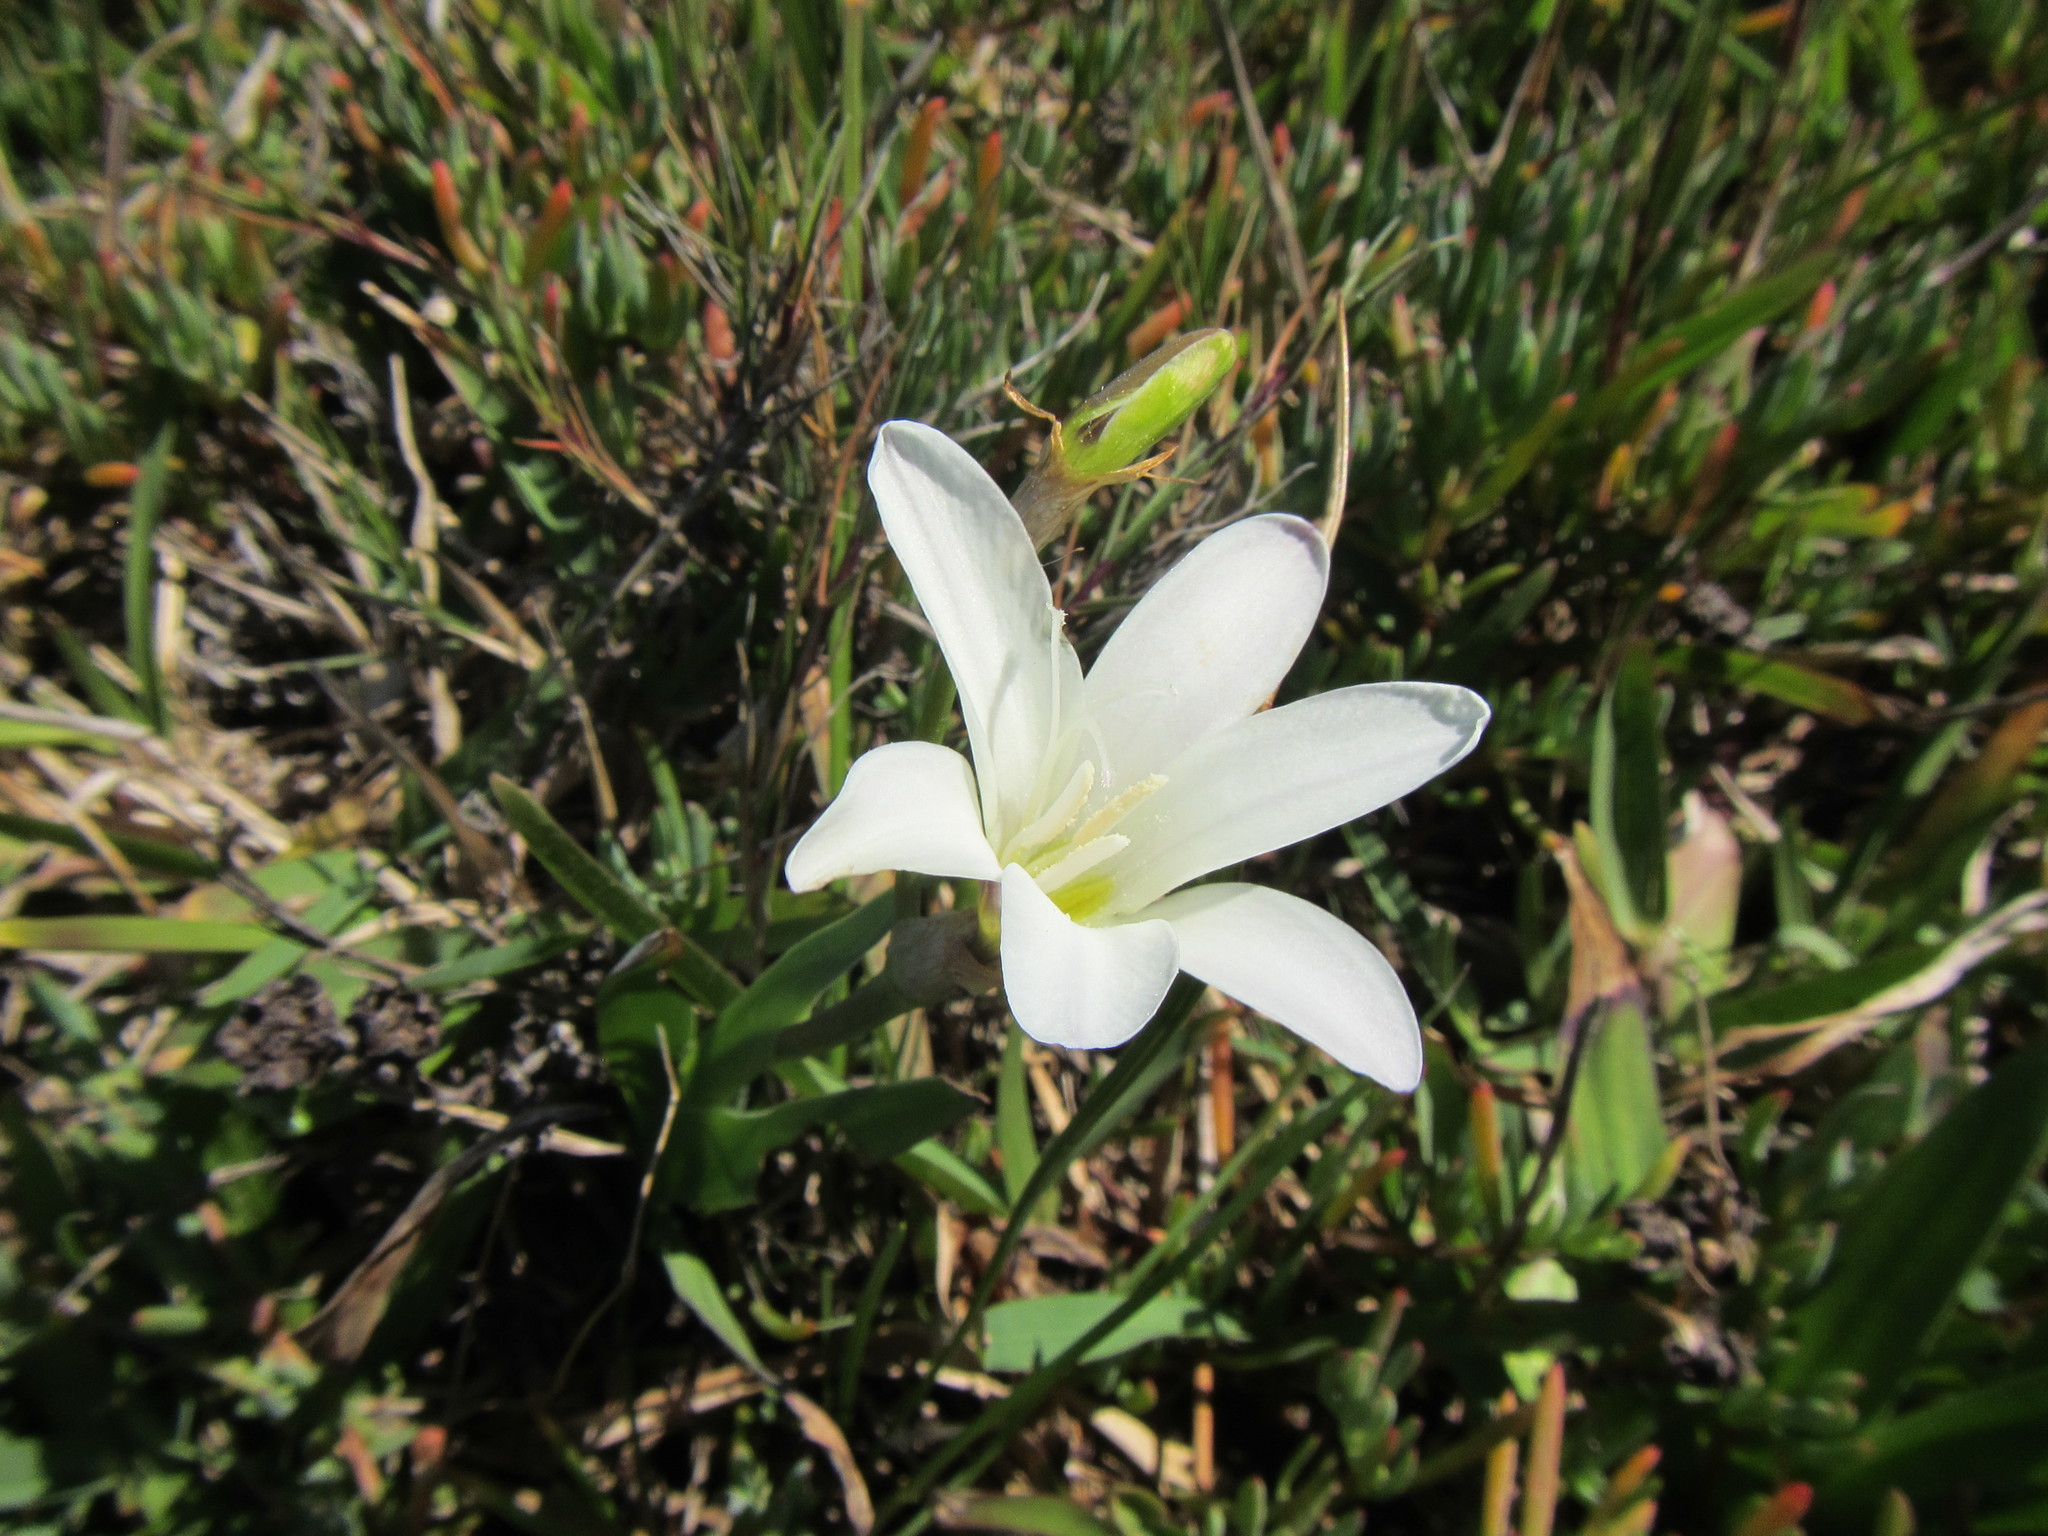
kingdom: Plantae
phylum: Tracheophyta
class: Liliopsida
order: Asparagales
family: Iridaceae
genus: Sparaxis
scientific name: Sparaxis bulbifera
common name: Harlequin-flower
